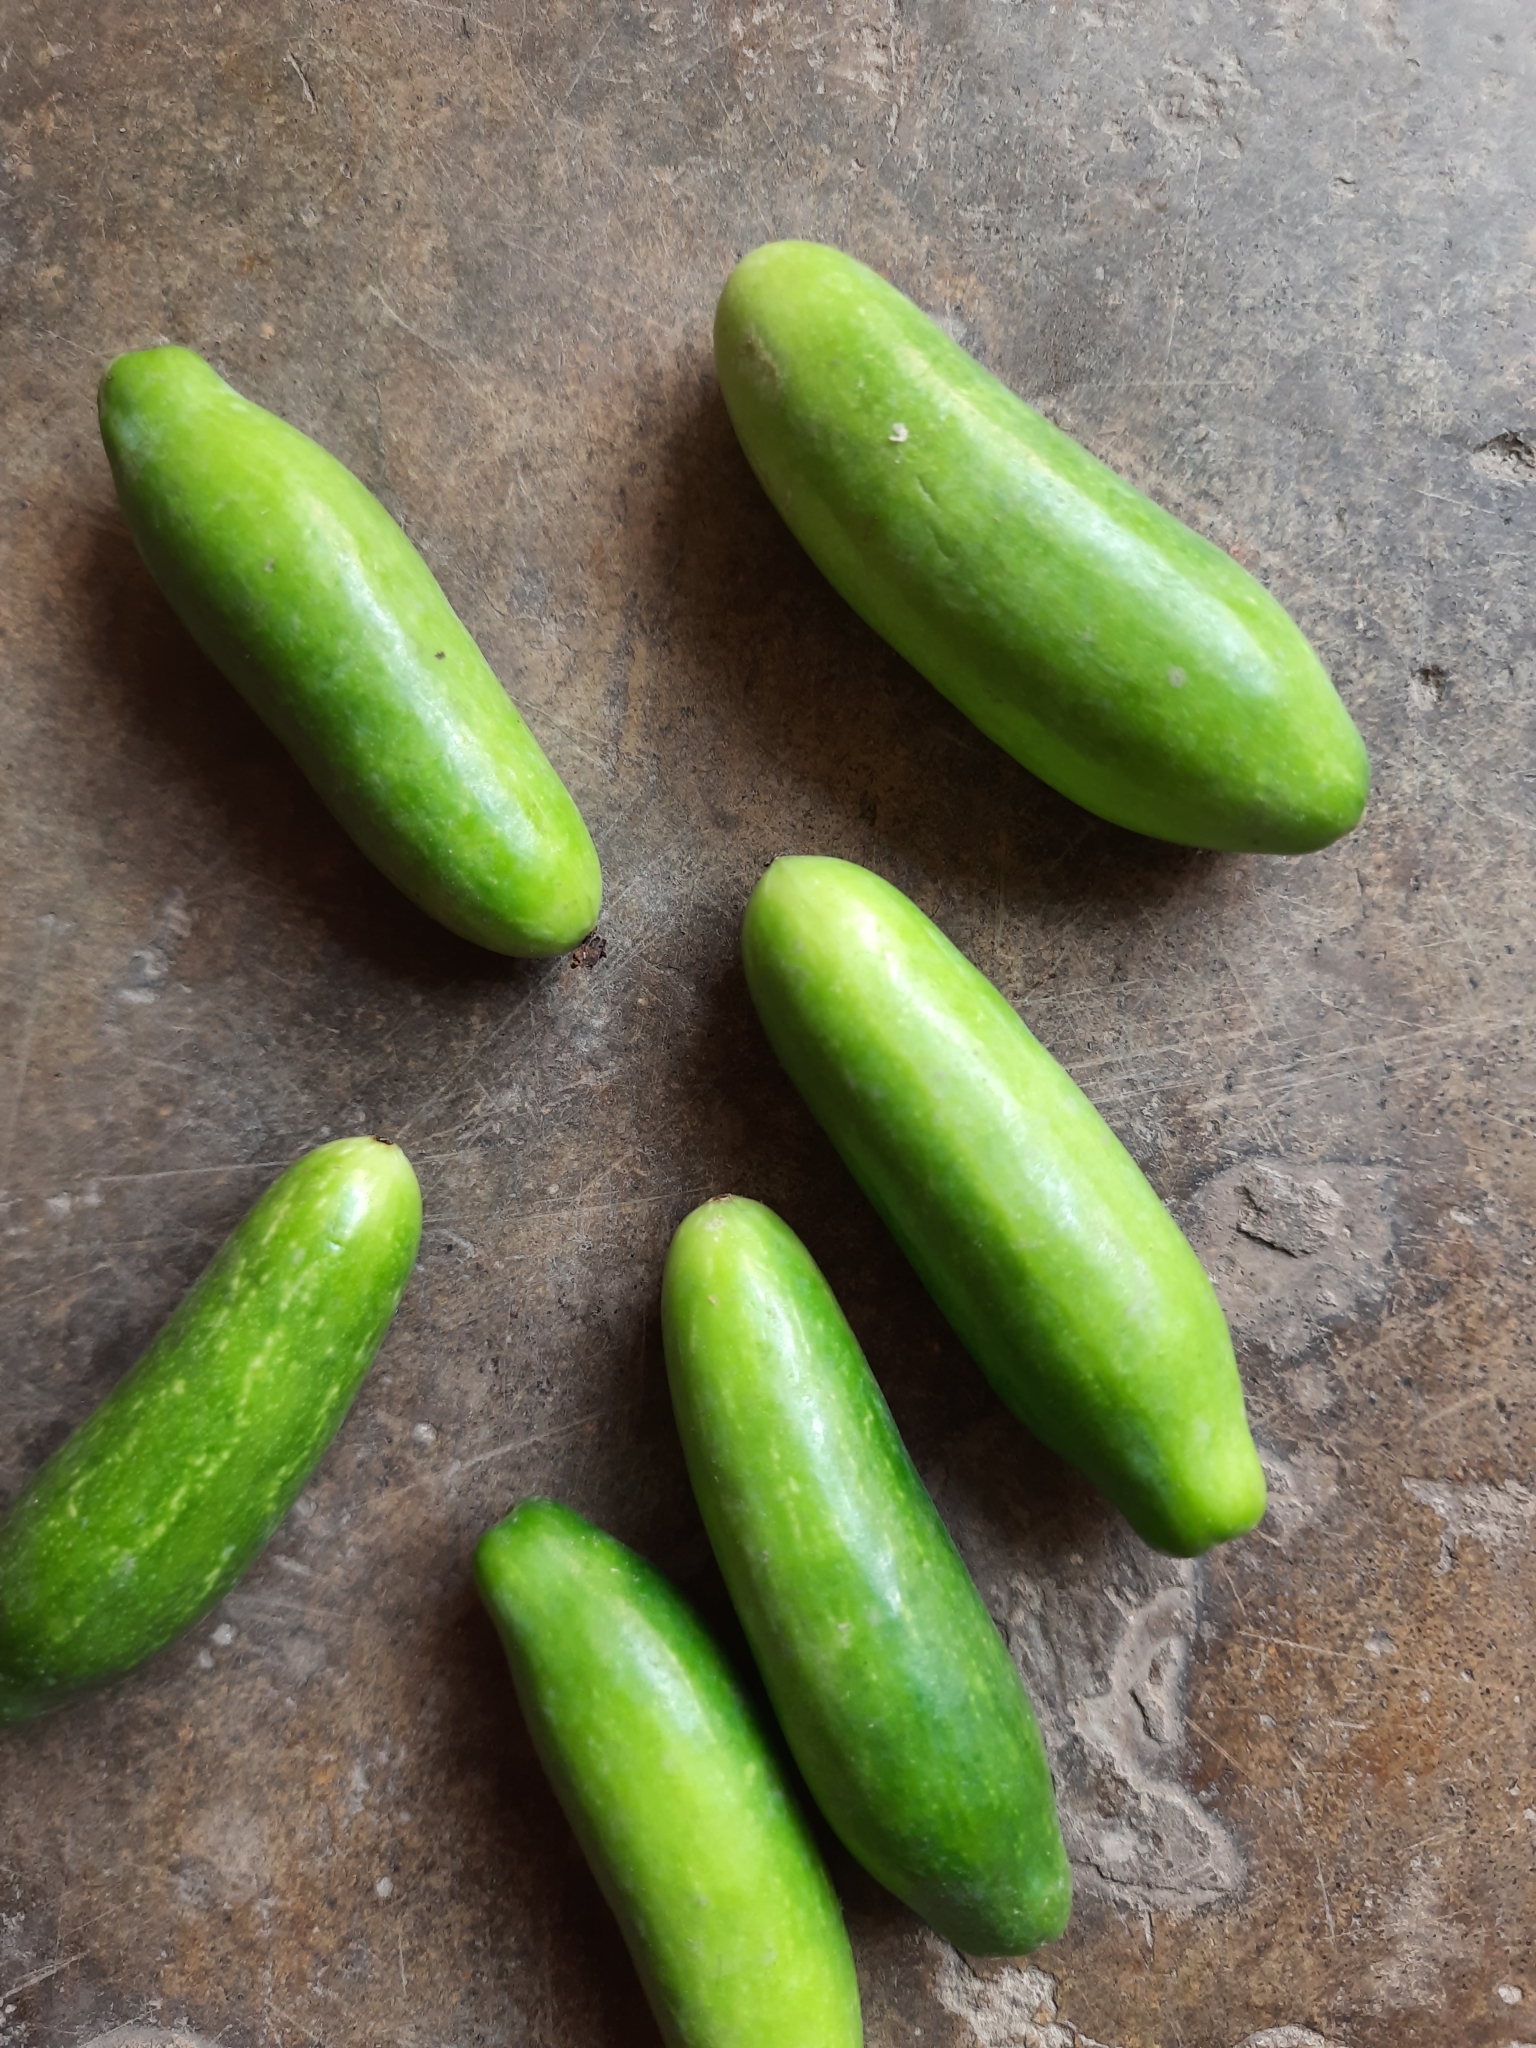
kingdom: Plantae
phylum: Tracheophyta
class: Magnoliopsida
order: Cucurbitales
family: Cucurbitaceae
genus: Coccinia
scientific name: Coccinia grandis
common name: Ivy gourd
